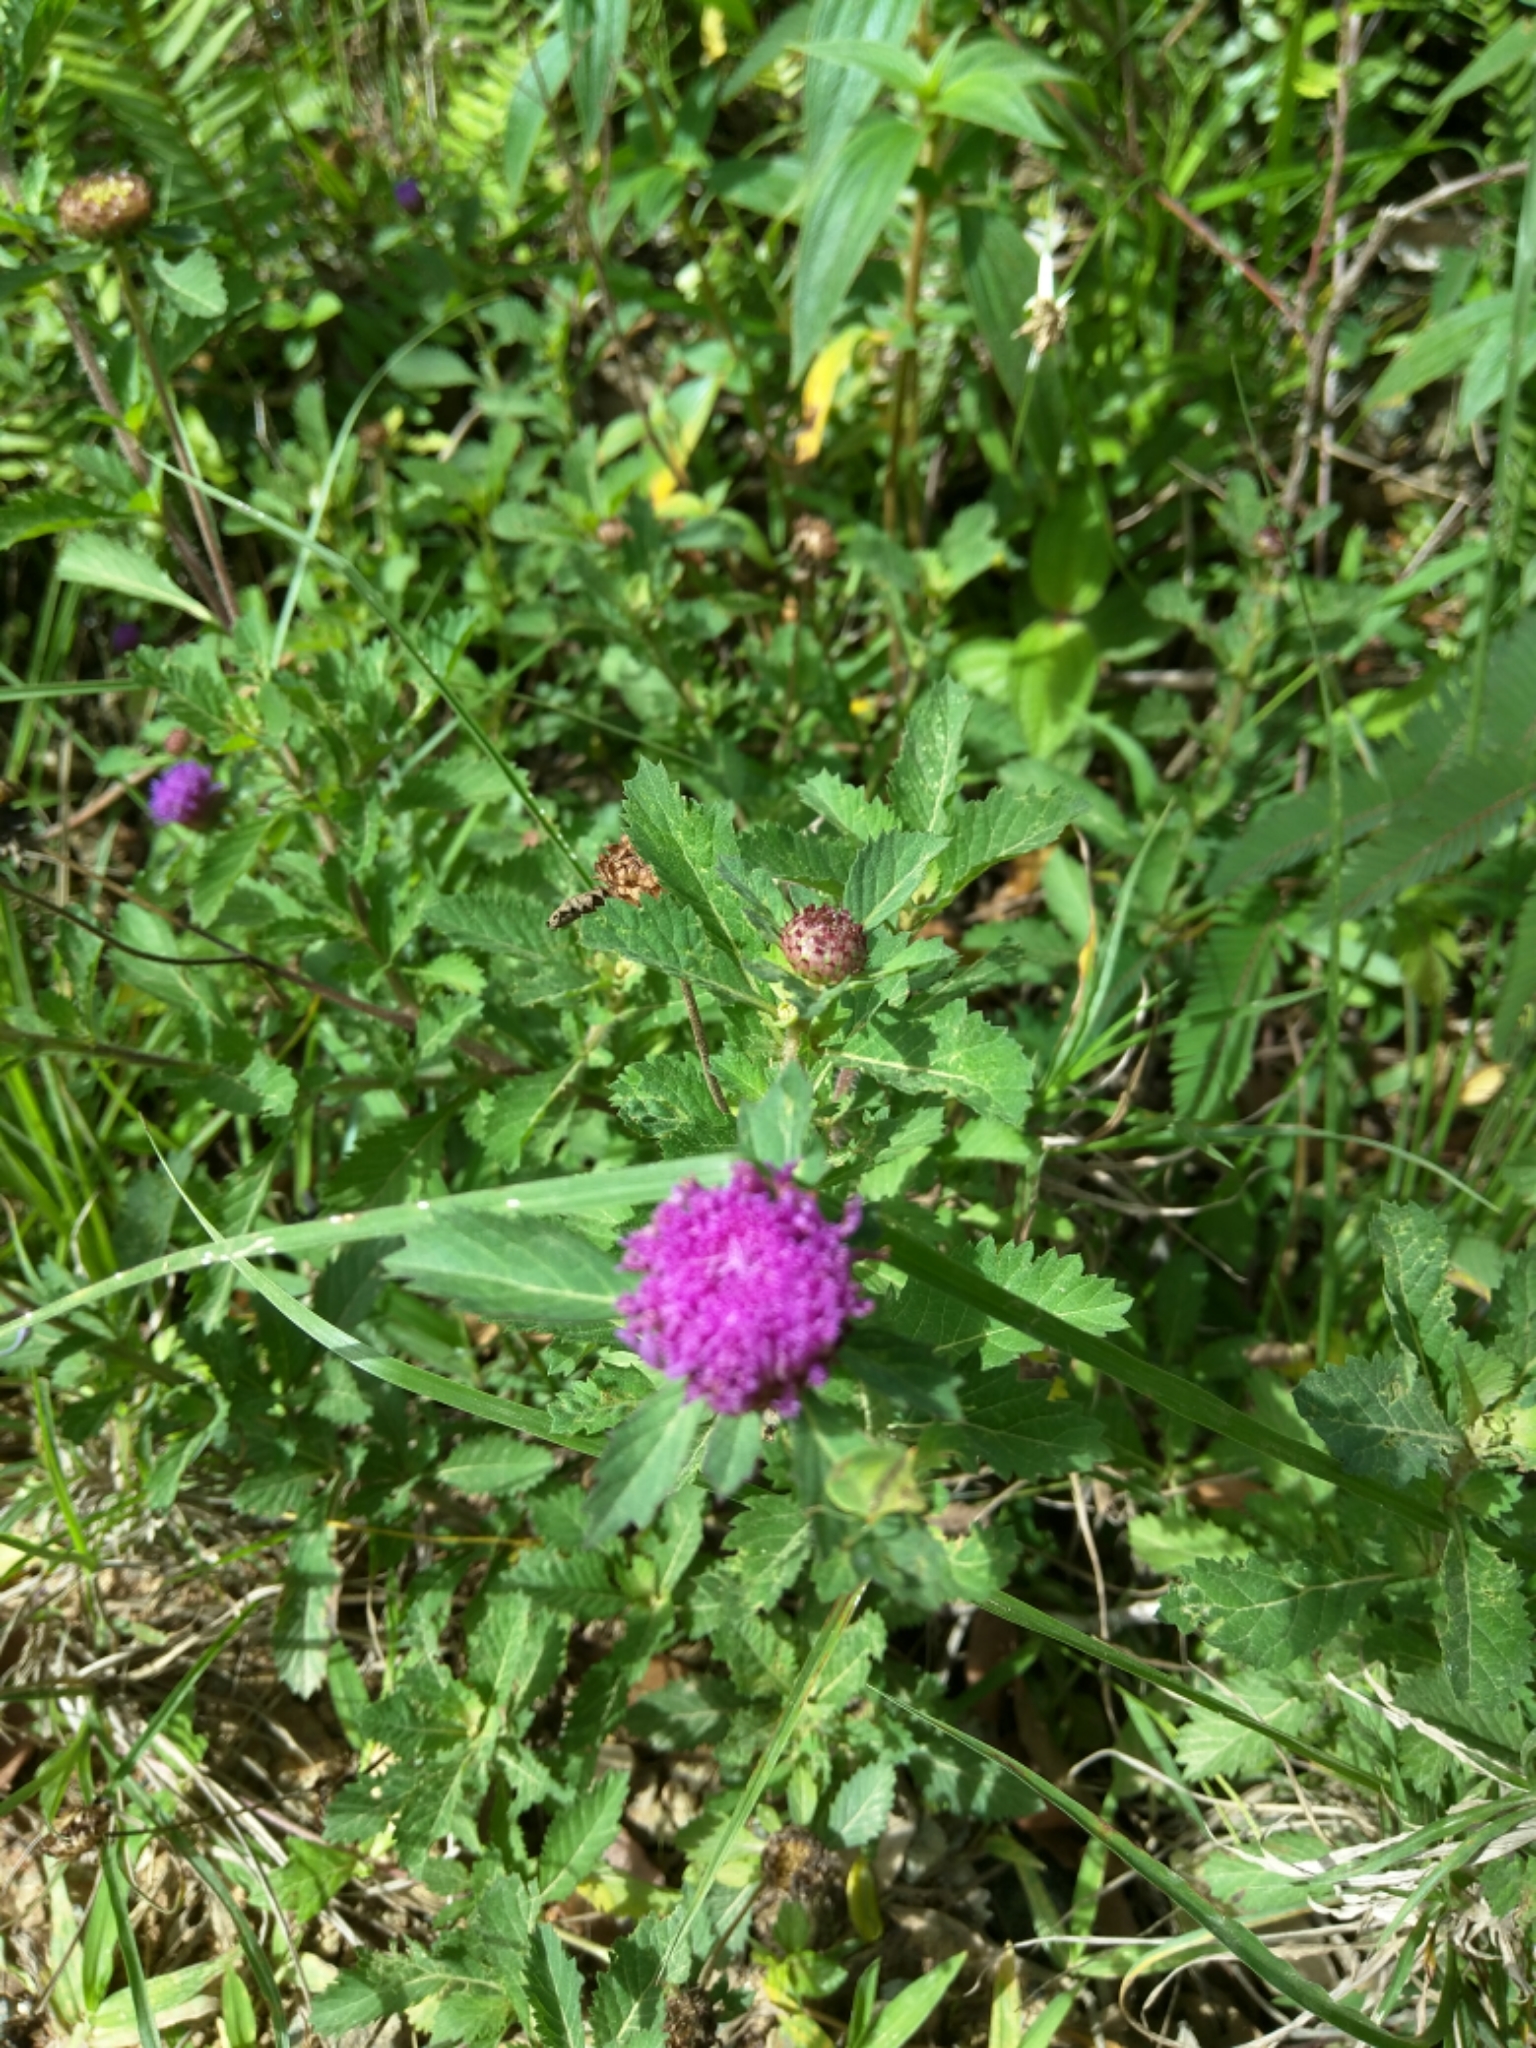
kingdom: Plantae
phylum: Tracheophyta
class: Magnoliopsida
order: Asterales
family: Asteraceae
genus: Centratherum
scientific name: Centratherum punctatum
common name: Larkdaisy
